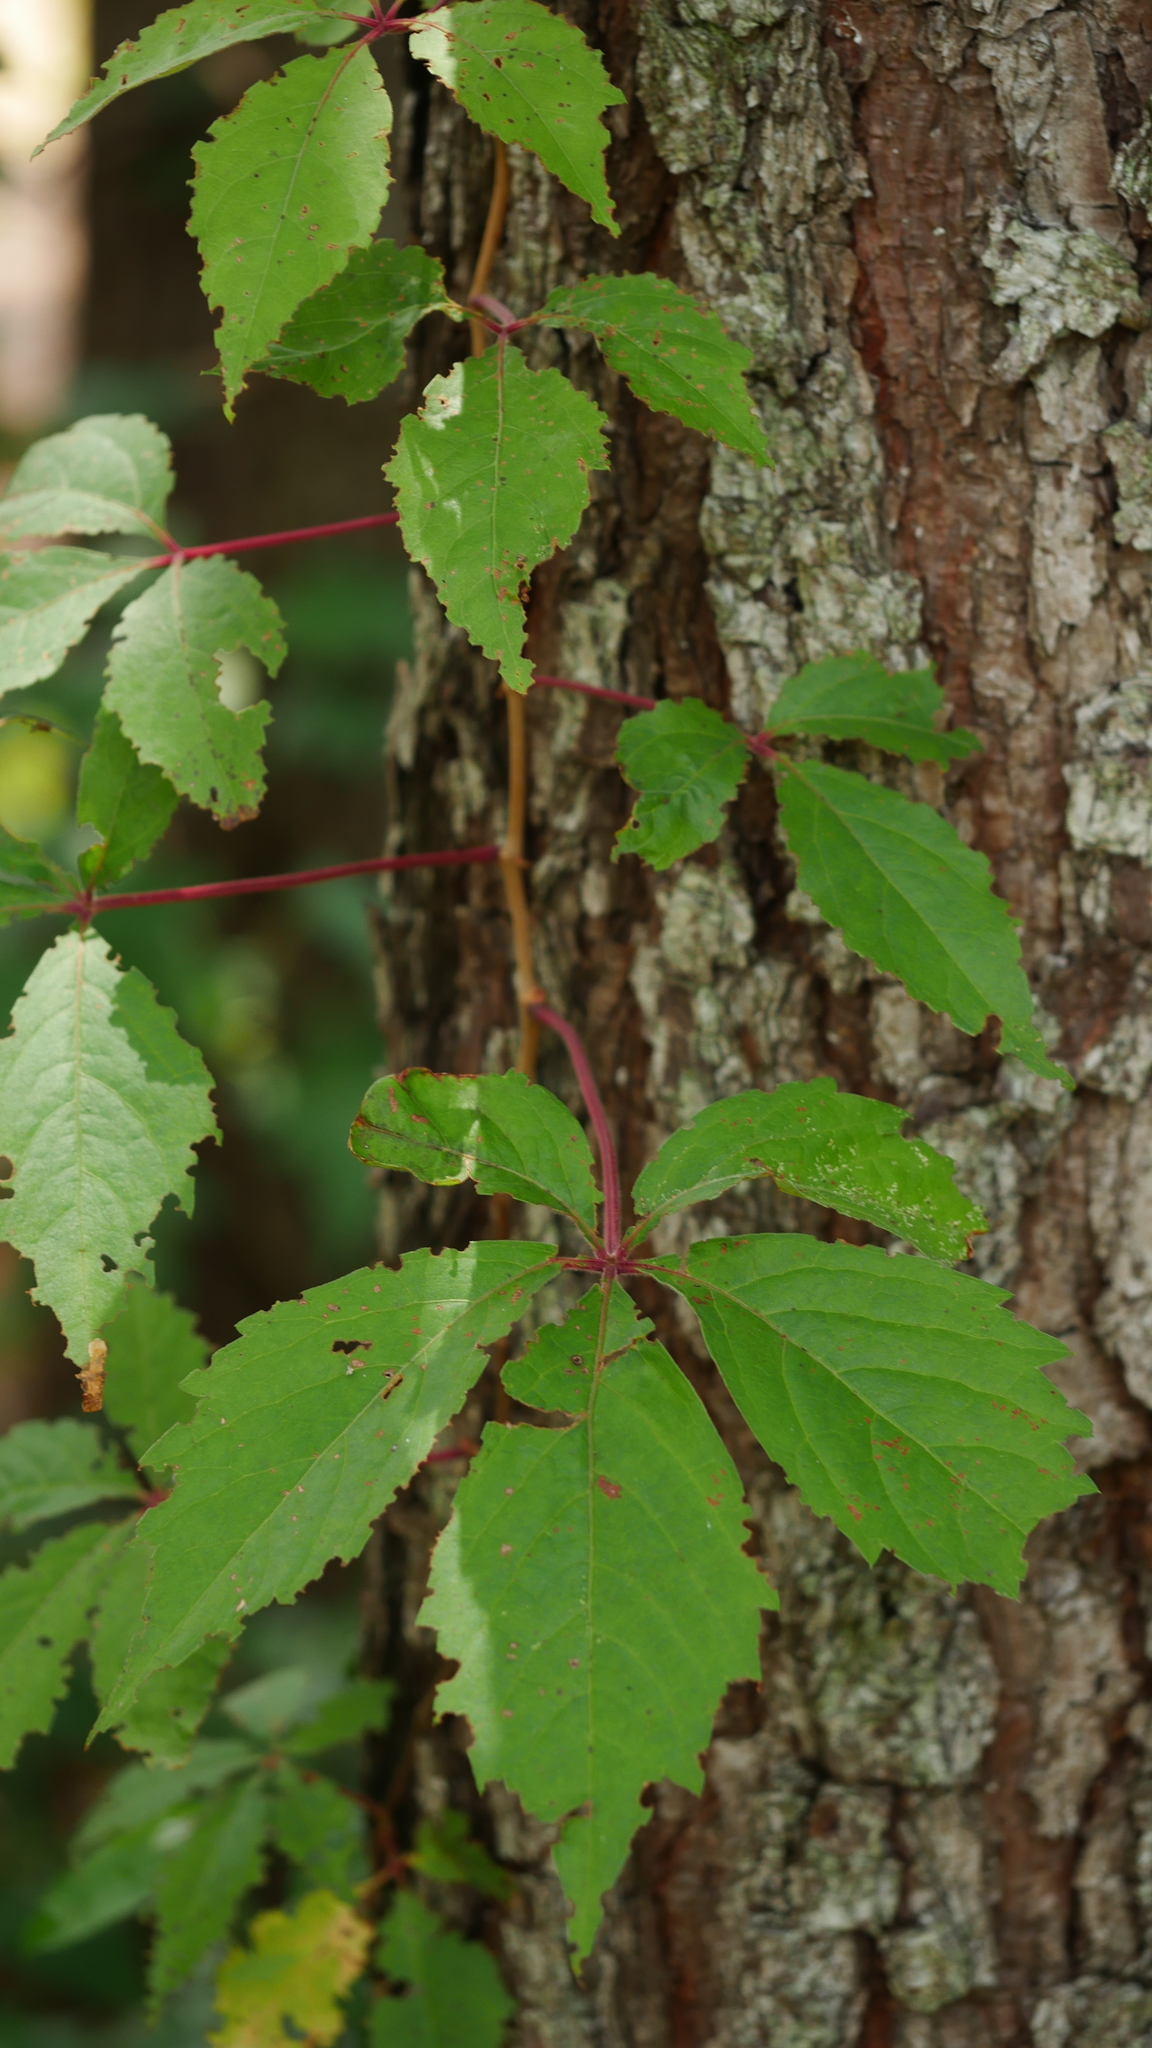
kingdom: Plantae
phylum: Tracheophyta
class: Magnoliopsida
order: Vitales
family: Vitaceae
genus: Parthenocissus
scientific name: Parthenocissus quinquefolia
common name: Virginia-creeper
